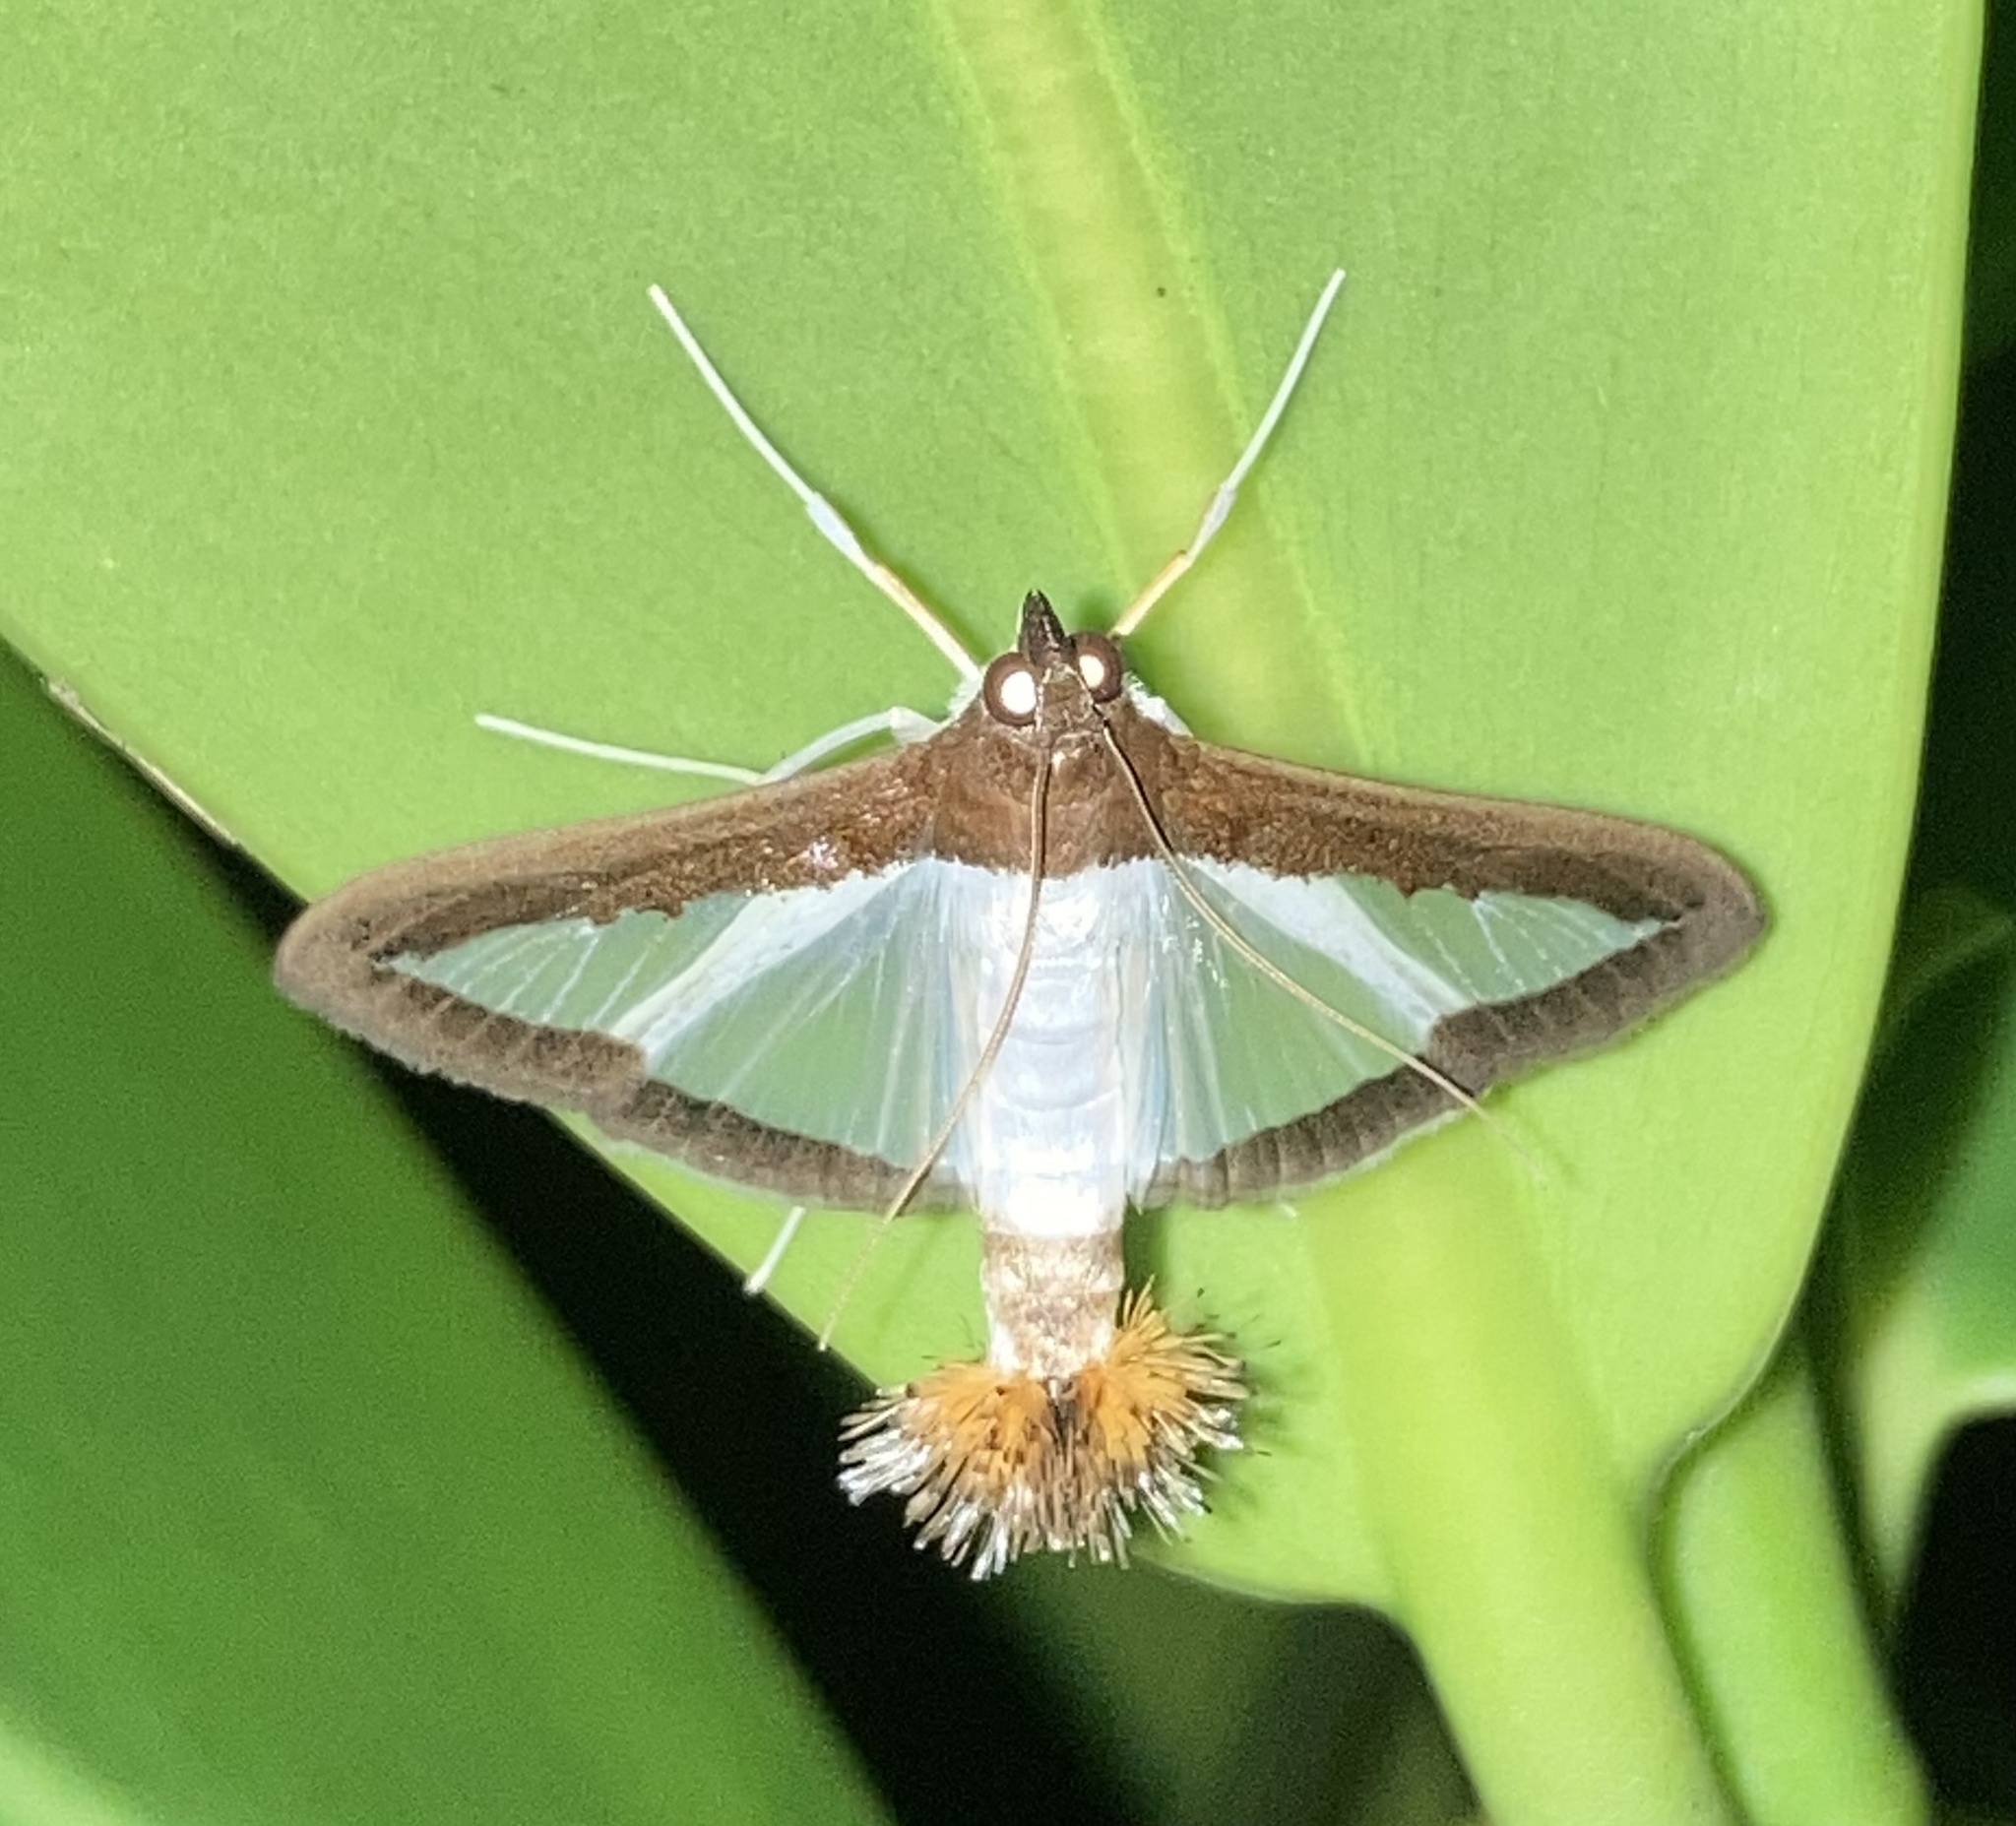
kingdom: Animalia
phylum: Arthropoda
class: Insecta
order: Lepidoptera
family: Crambidae
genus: Diaphania
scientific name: Diaphania hyalinata
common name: Melonworm
